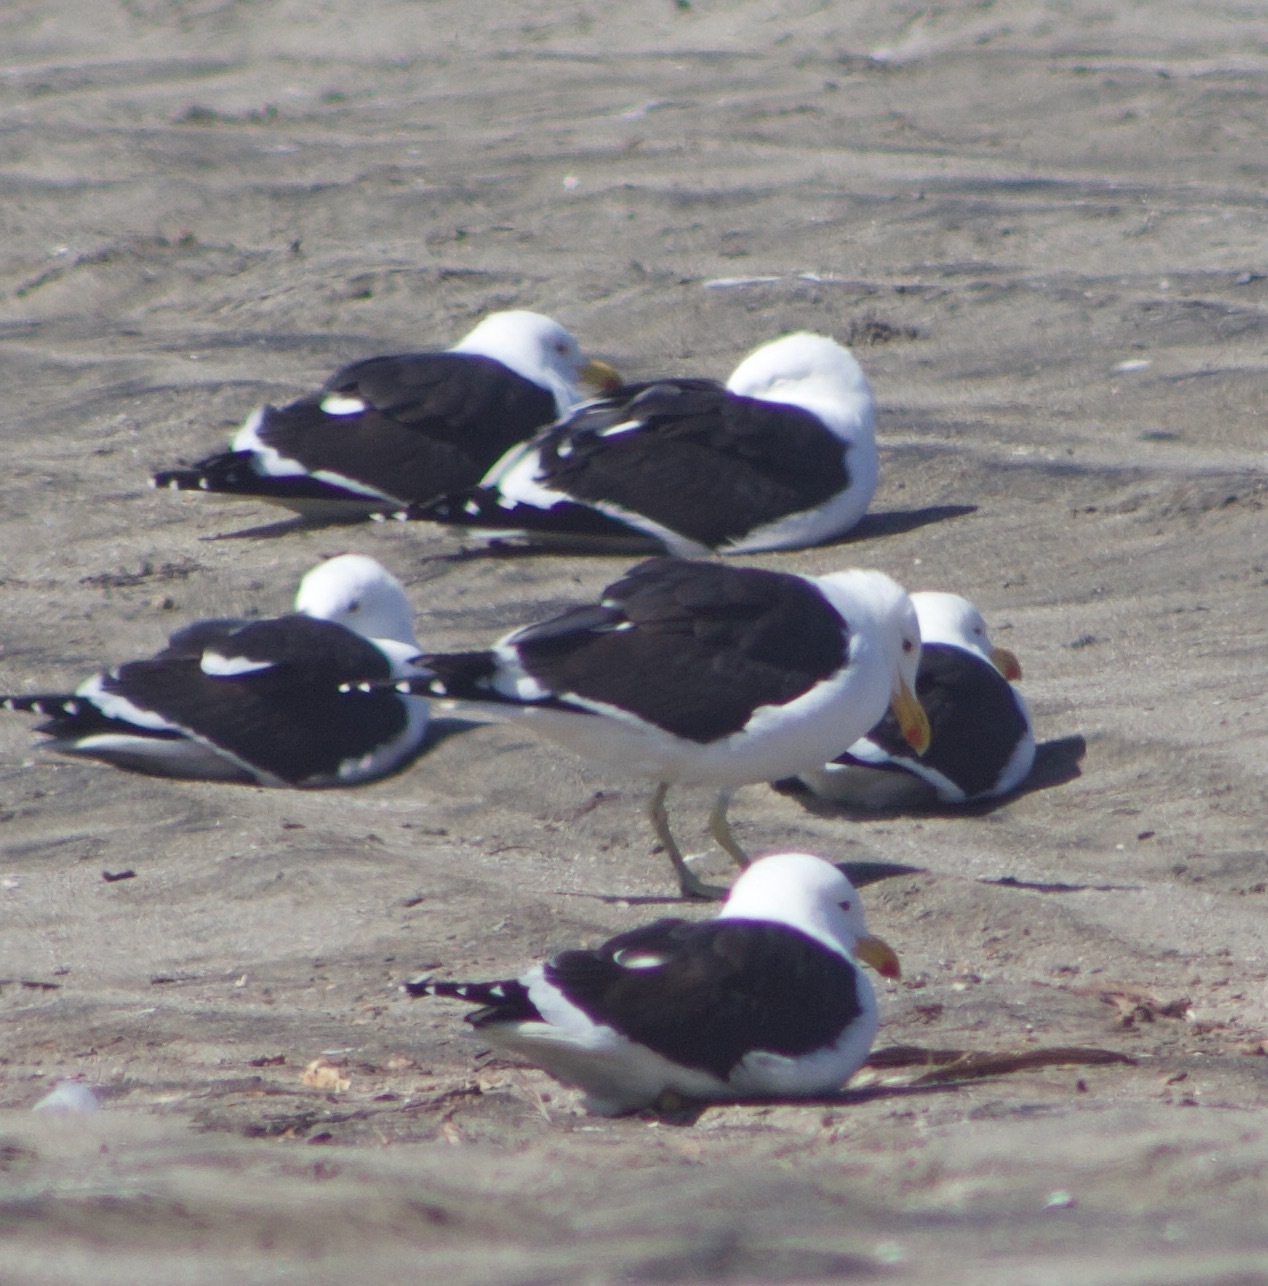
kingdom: Animalia
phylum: Chordata
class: Aves
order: Charadriiformes
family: Laridae
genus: Larus
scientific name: Larus dominicanus
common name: Kelp gull
